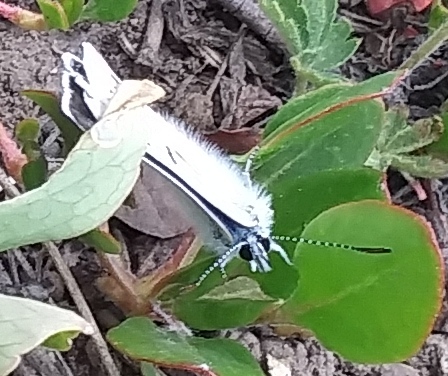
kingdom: Animalia
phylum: Arthropoda
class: Insecta
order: Lepidoptera
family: Lycaenidae
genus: Icaricia
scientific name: Icaricia icarioides
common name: Boisduval's blue
